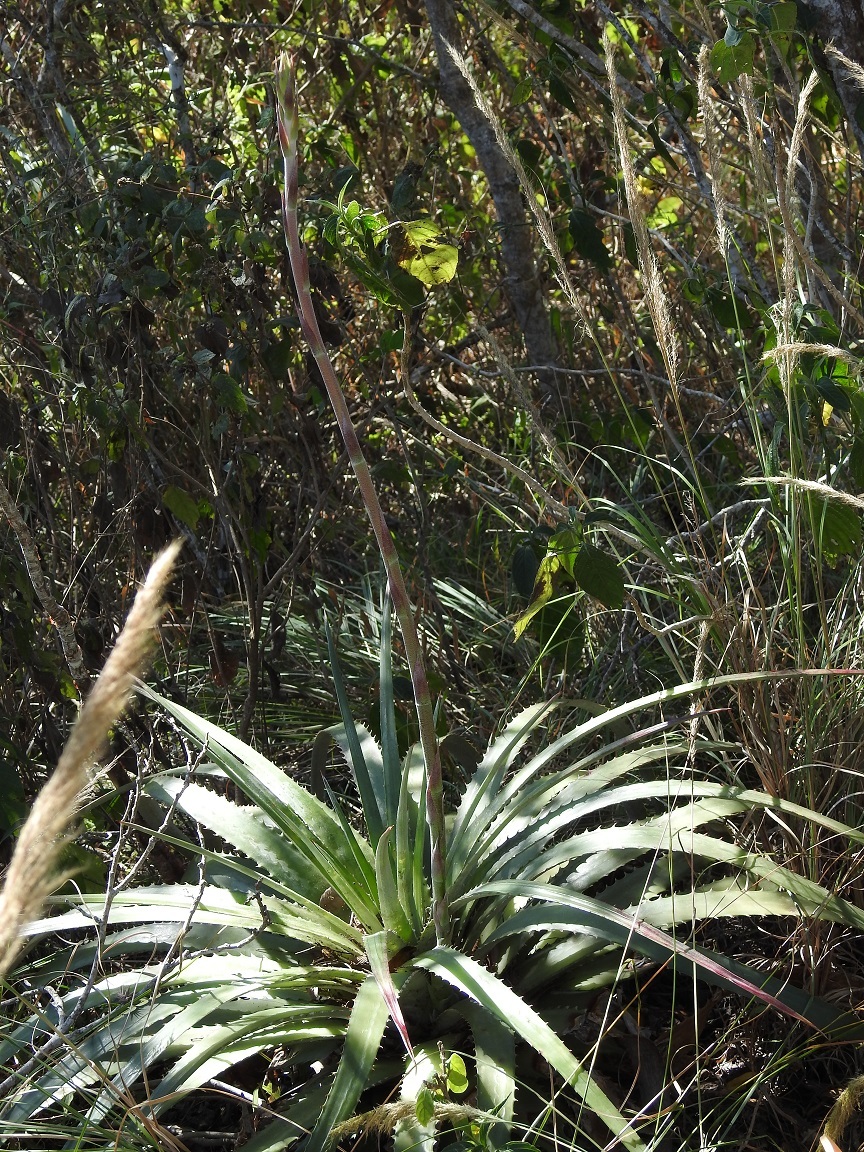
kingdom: Plantae
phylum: Tracheophyta
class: Liliopsida
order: Poales
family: Bromeliaceae
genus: Hechtia
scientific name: Hechtia glomerata
